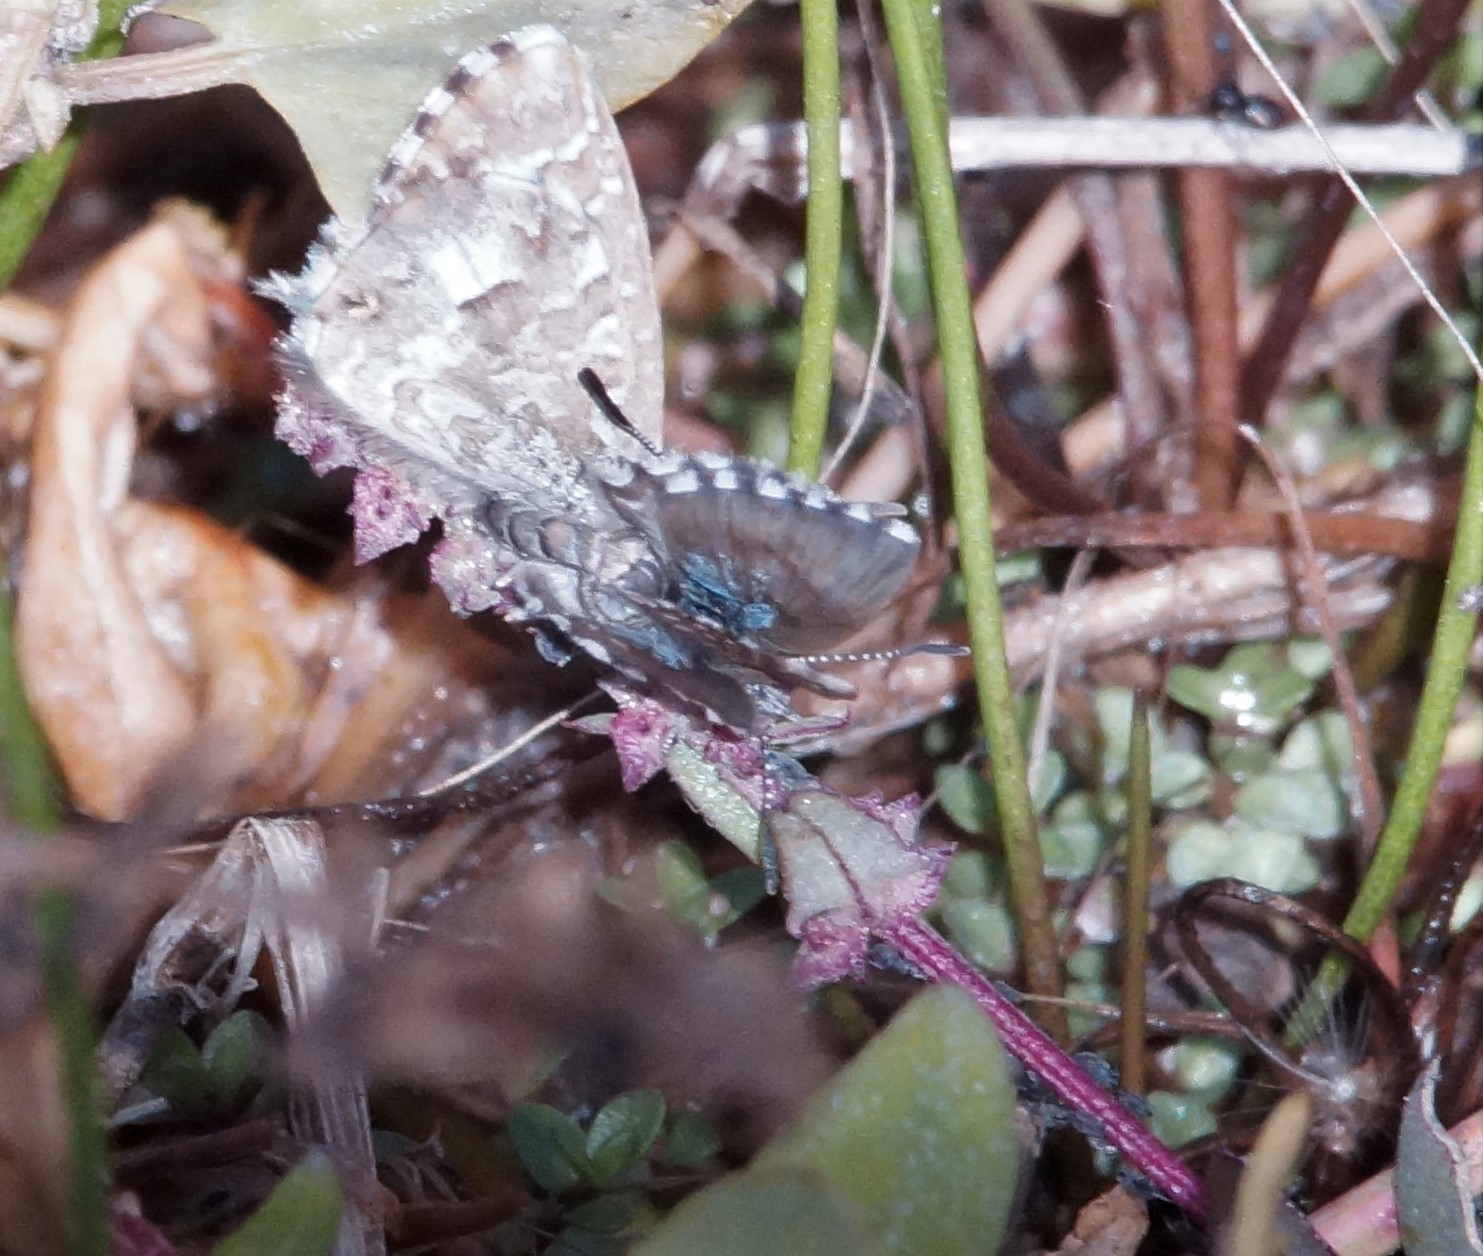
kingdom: Animalia
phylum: Arthropoda
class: Insecta
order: Lepidoptera
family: Lycaenidae
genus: Theclinesthes
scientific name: Theclinesthes serpentata
